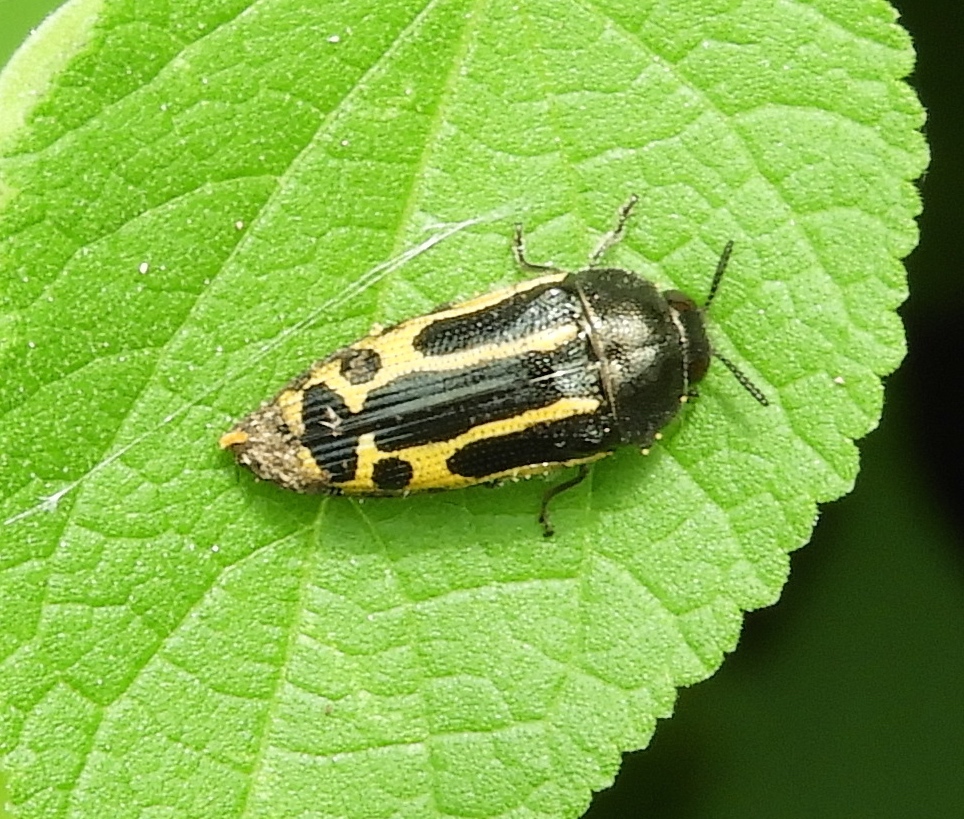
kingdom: Animalia
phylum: Arthropoda
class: Insecta
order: Coleoptera
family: Buprestidae
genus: Acmaeodera
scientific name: Acmaeodera scalaris
